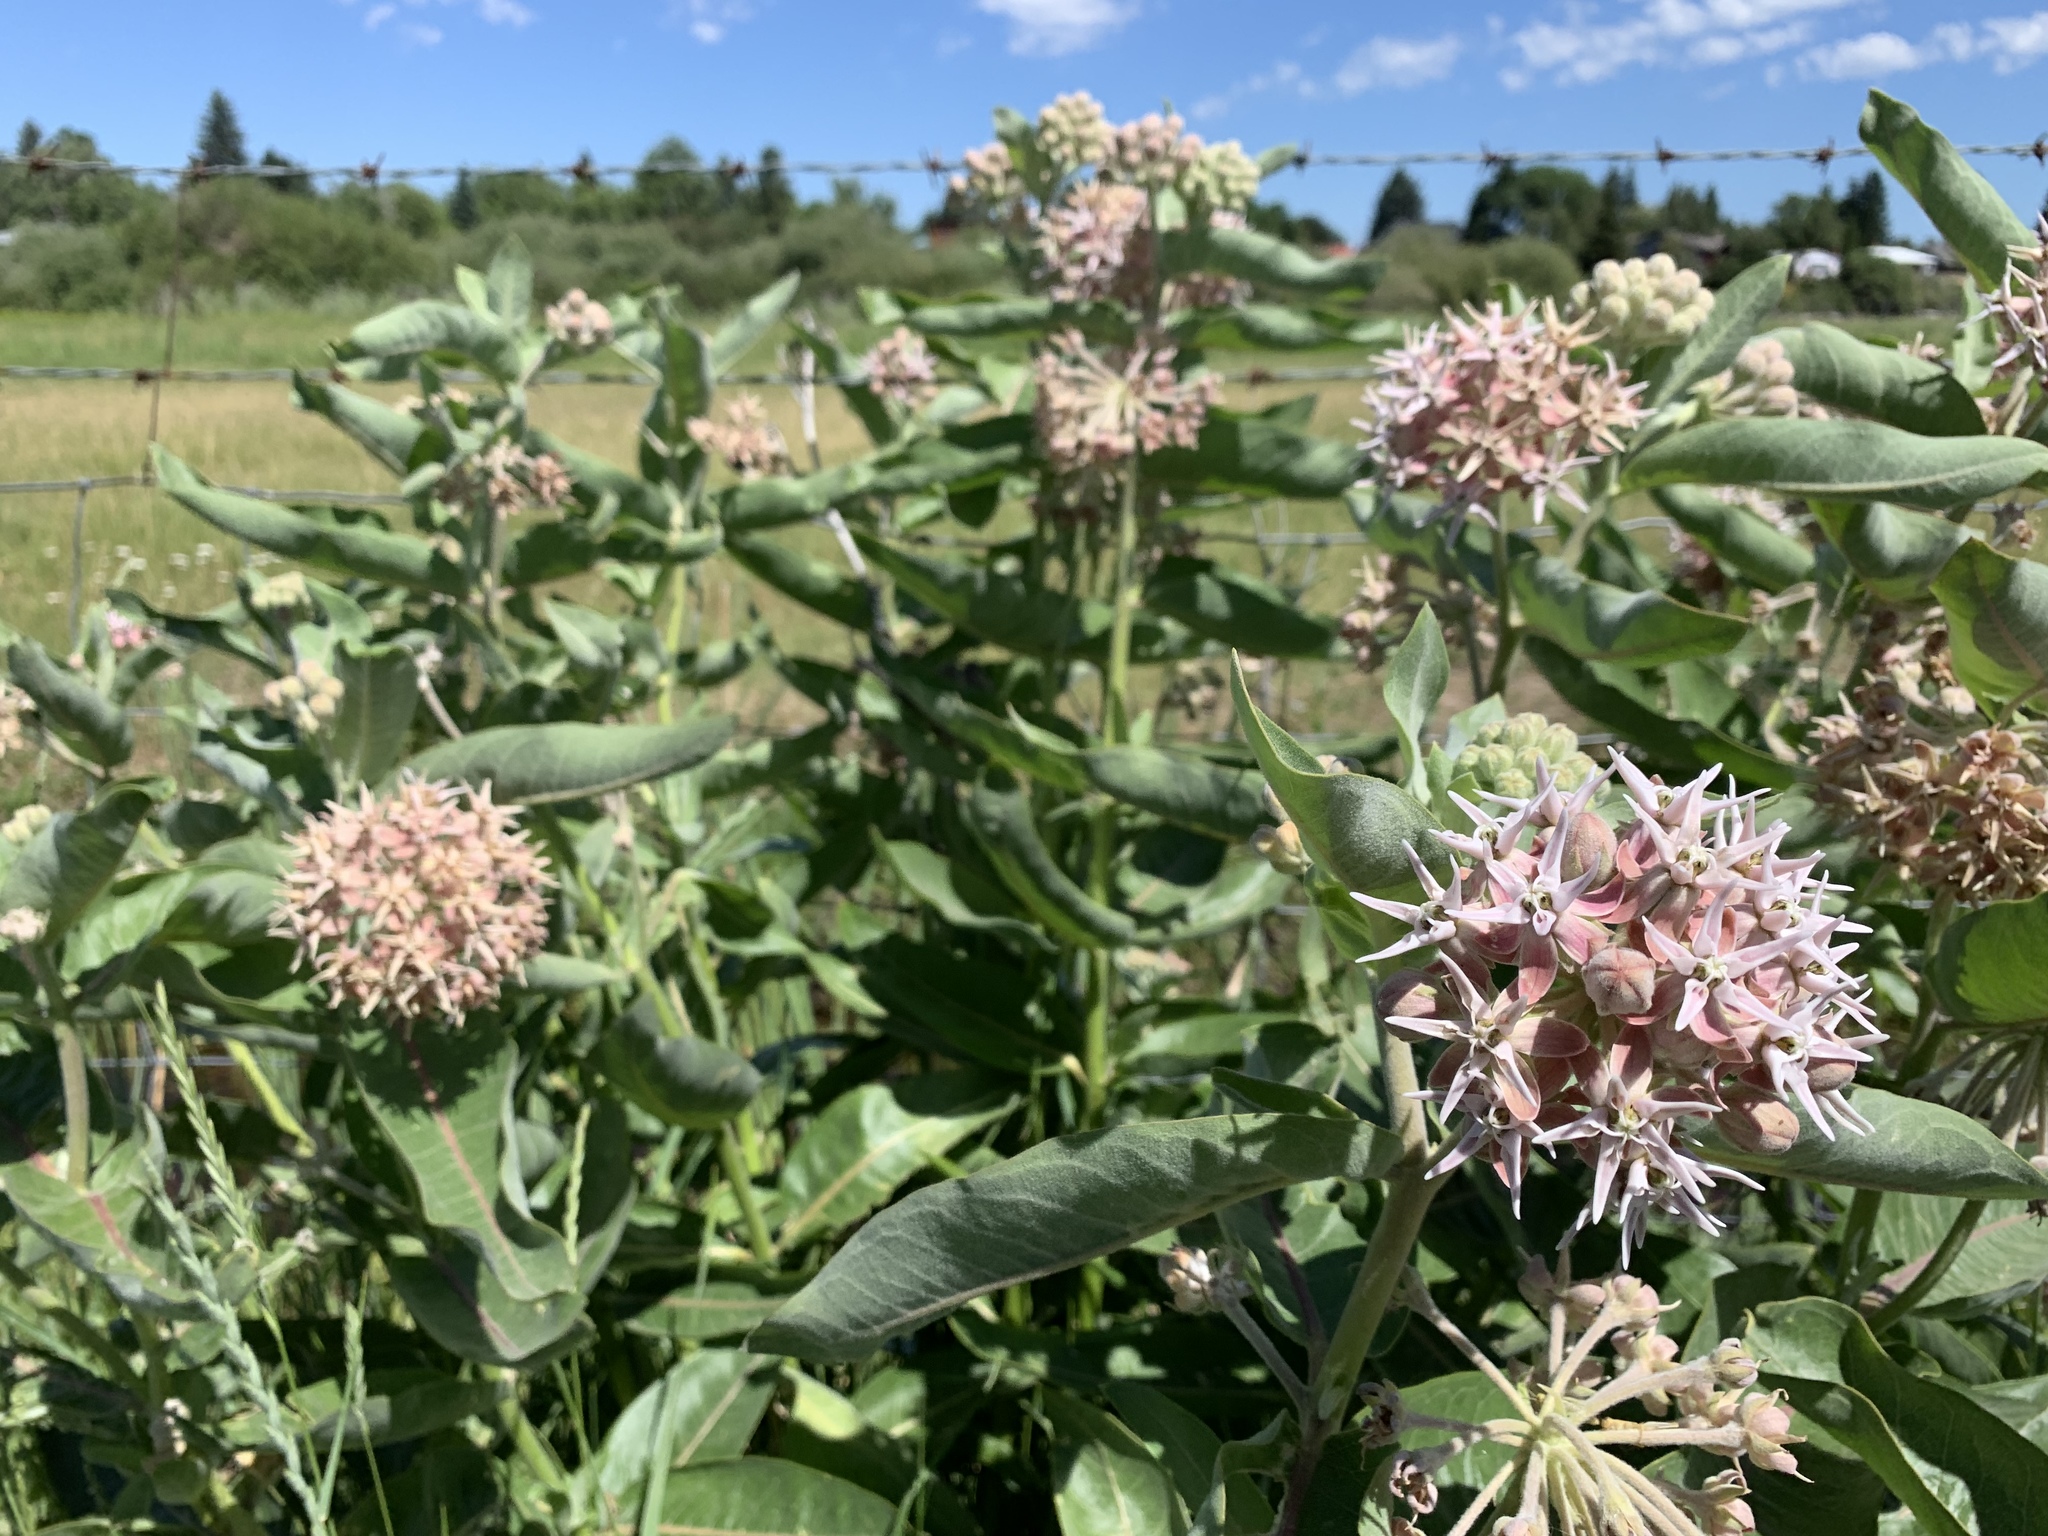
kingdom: Plantae
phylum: Tracheophyta
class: Magnoliopsida
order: Gentianales
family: Apocynaceae
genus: Asclepias
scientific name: Asclepias speciosa
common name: Showy milkweed
